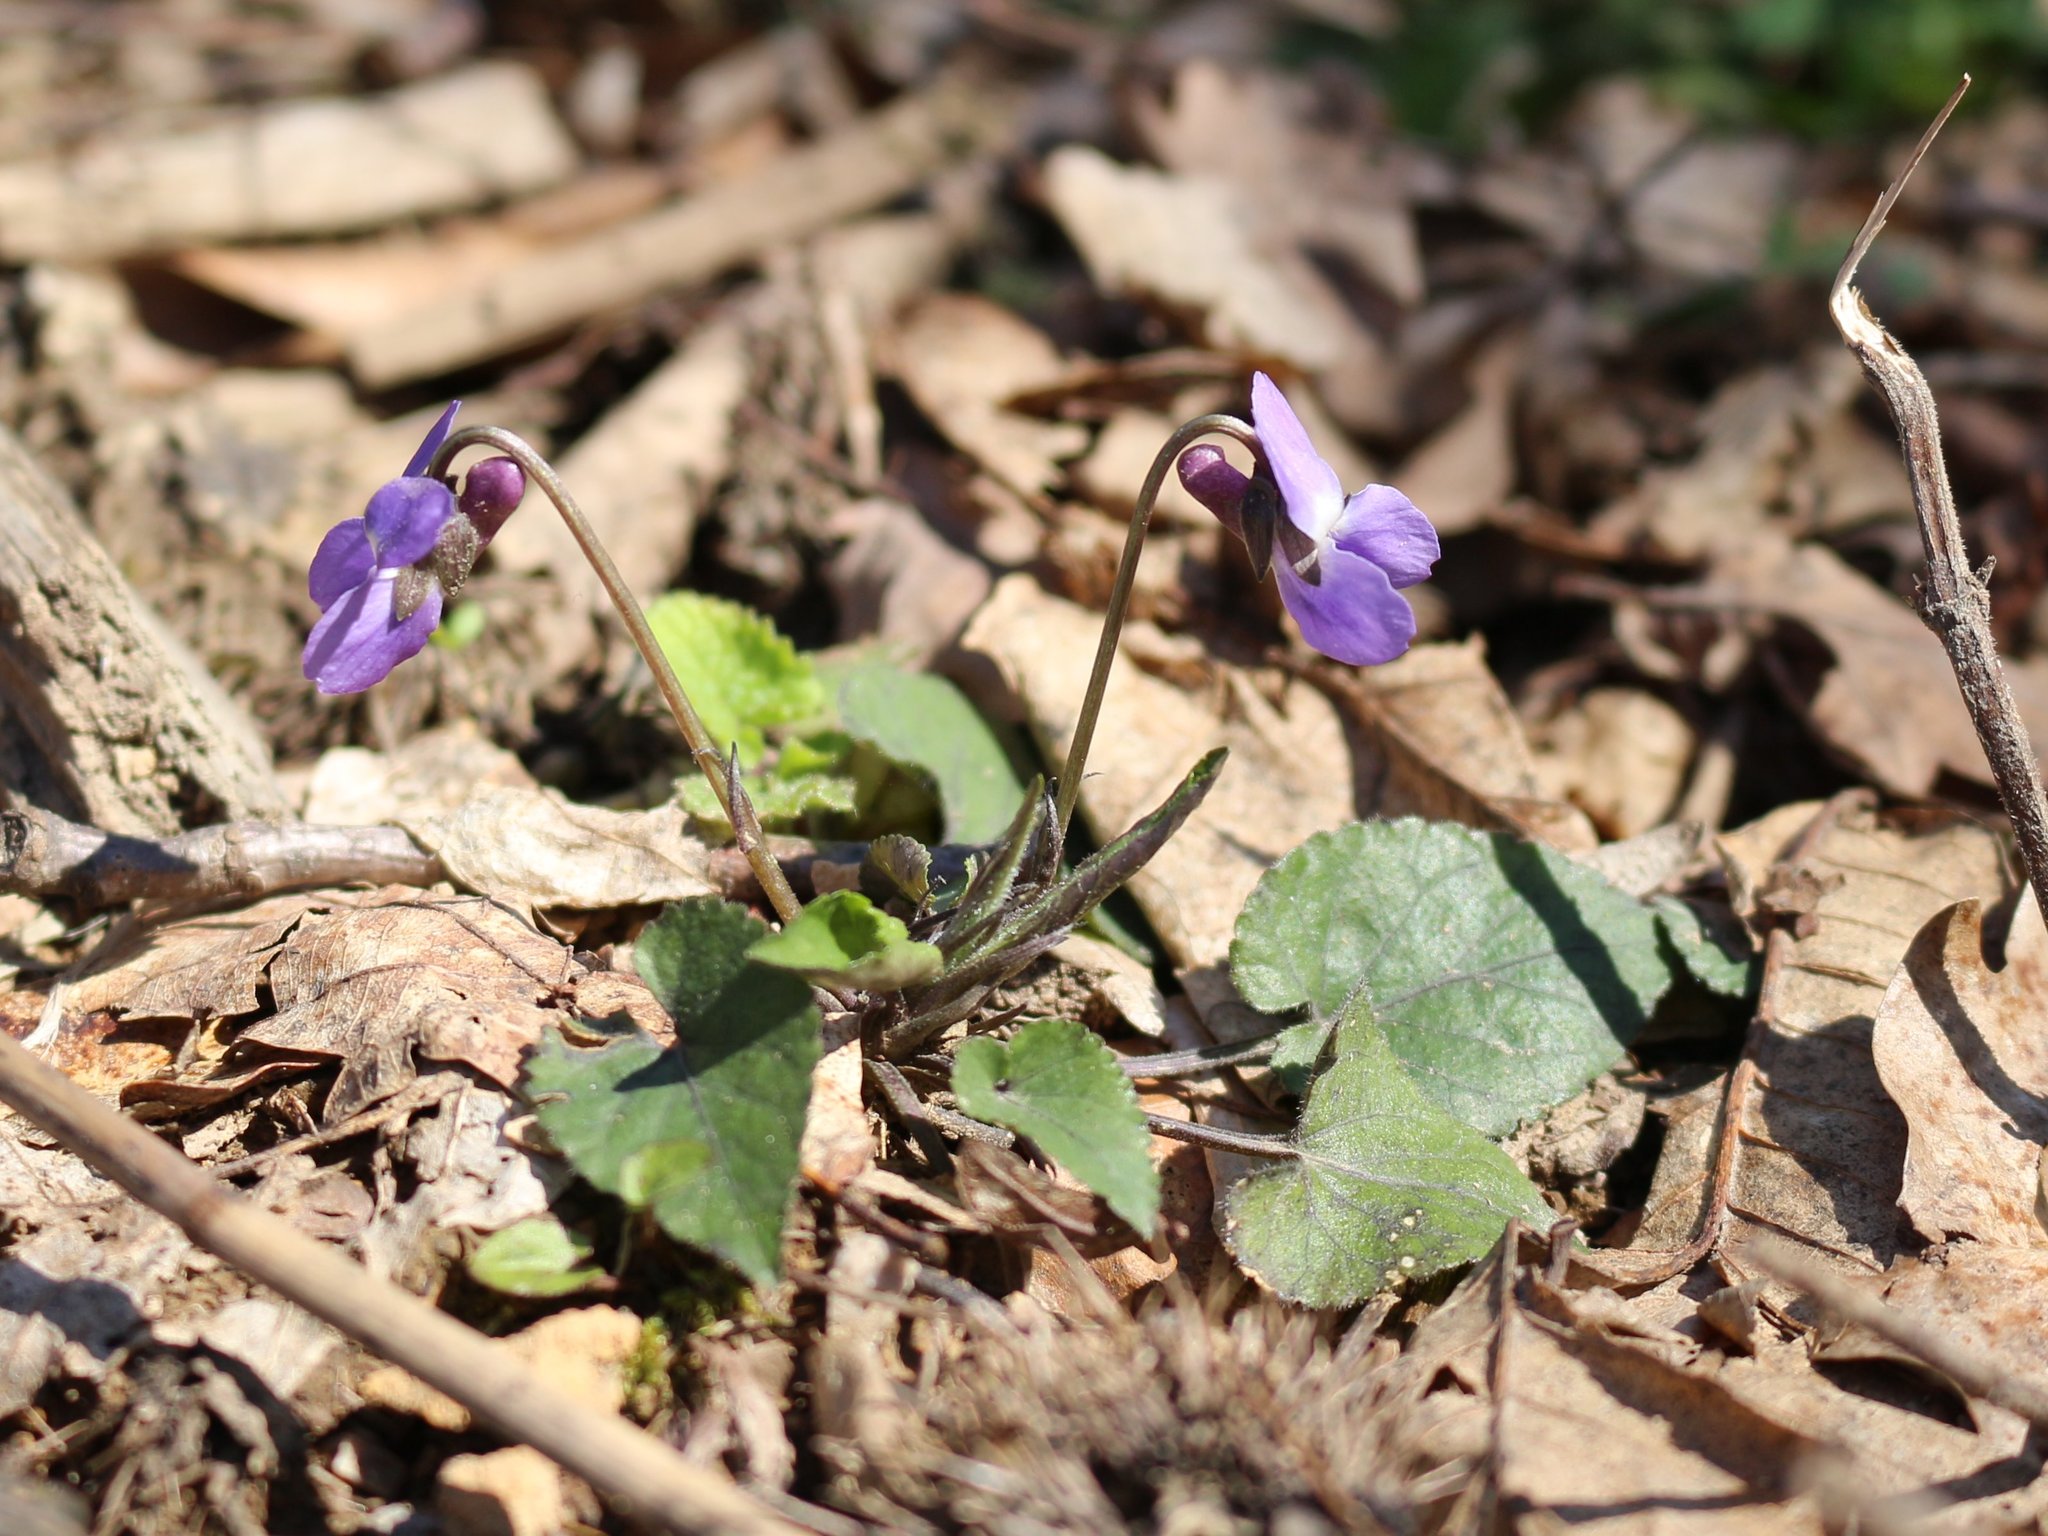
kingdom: Plantae
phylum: Tracheophyta
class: Magnoliopsida
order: Malpighiales
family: Violaceae
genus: Viola
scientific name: Viola alba
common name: White violet
